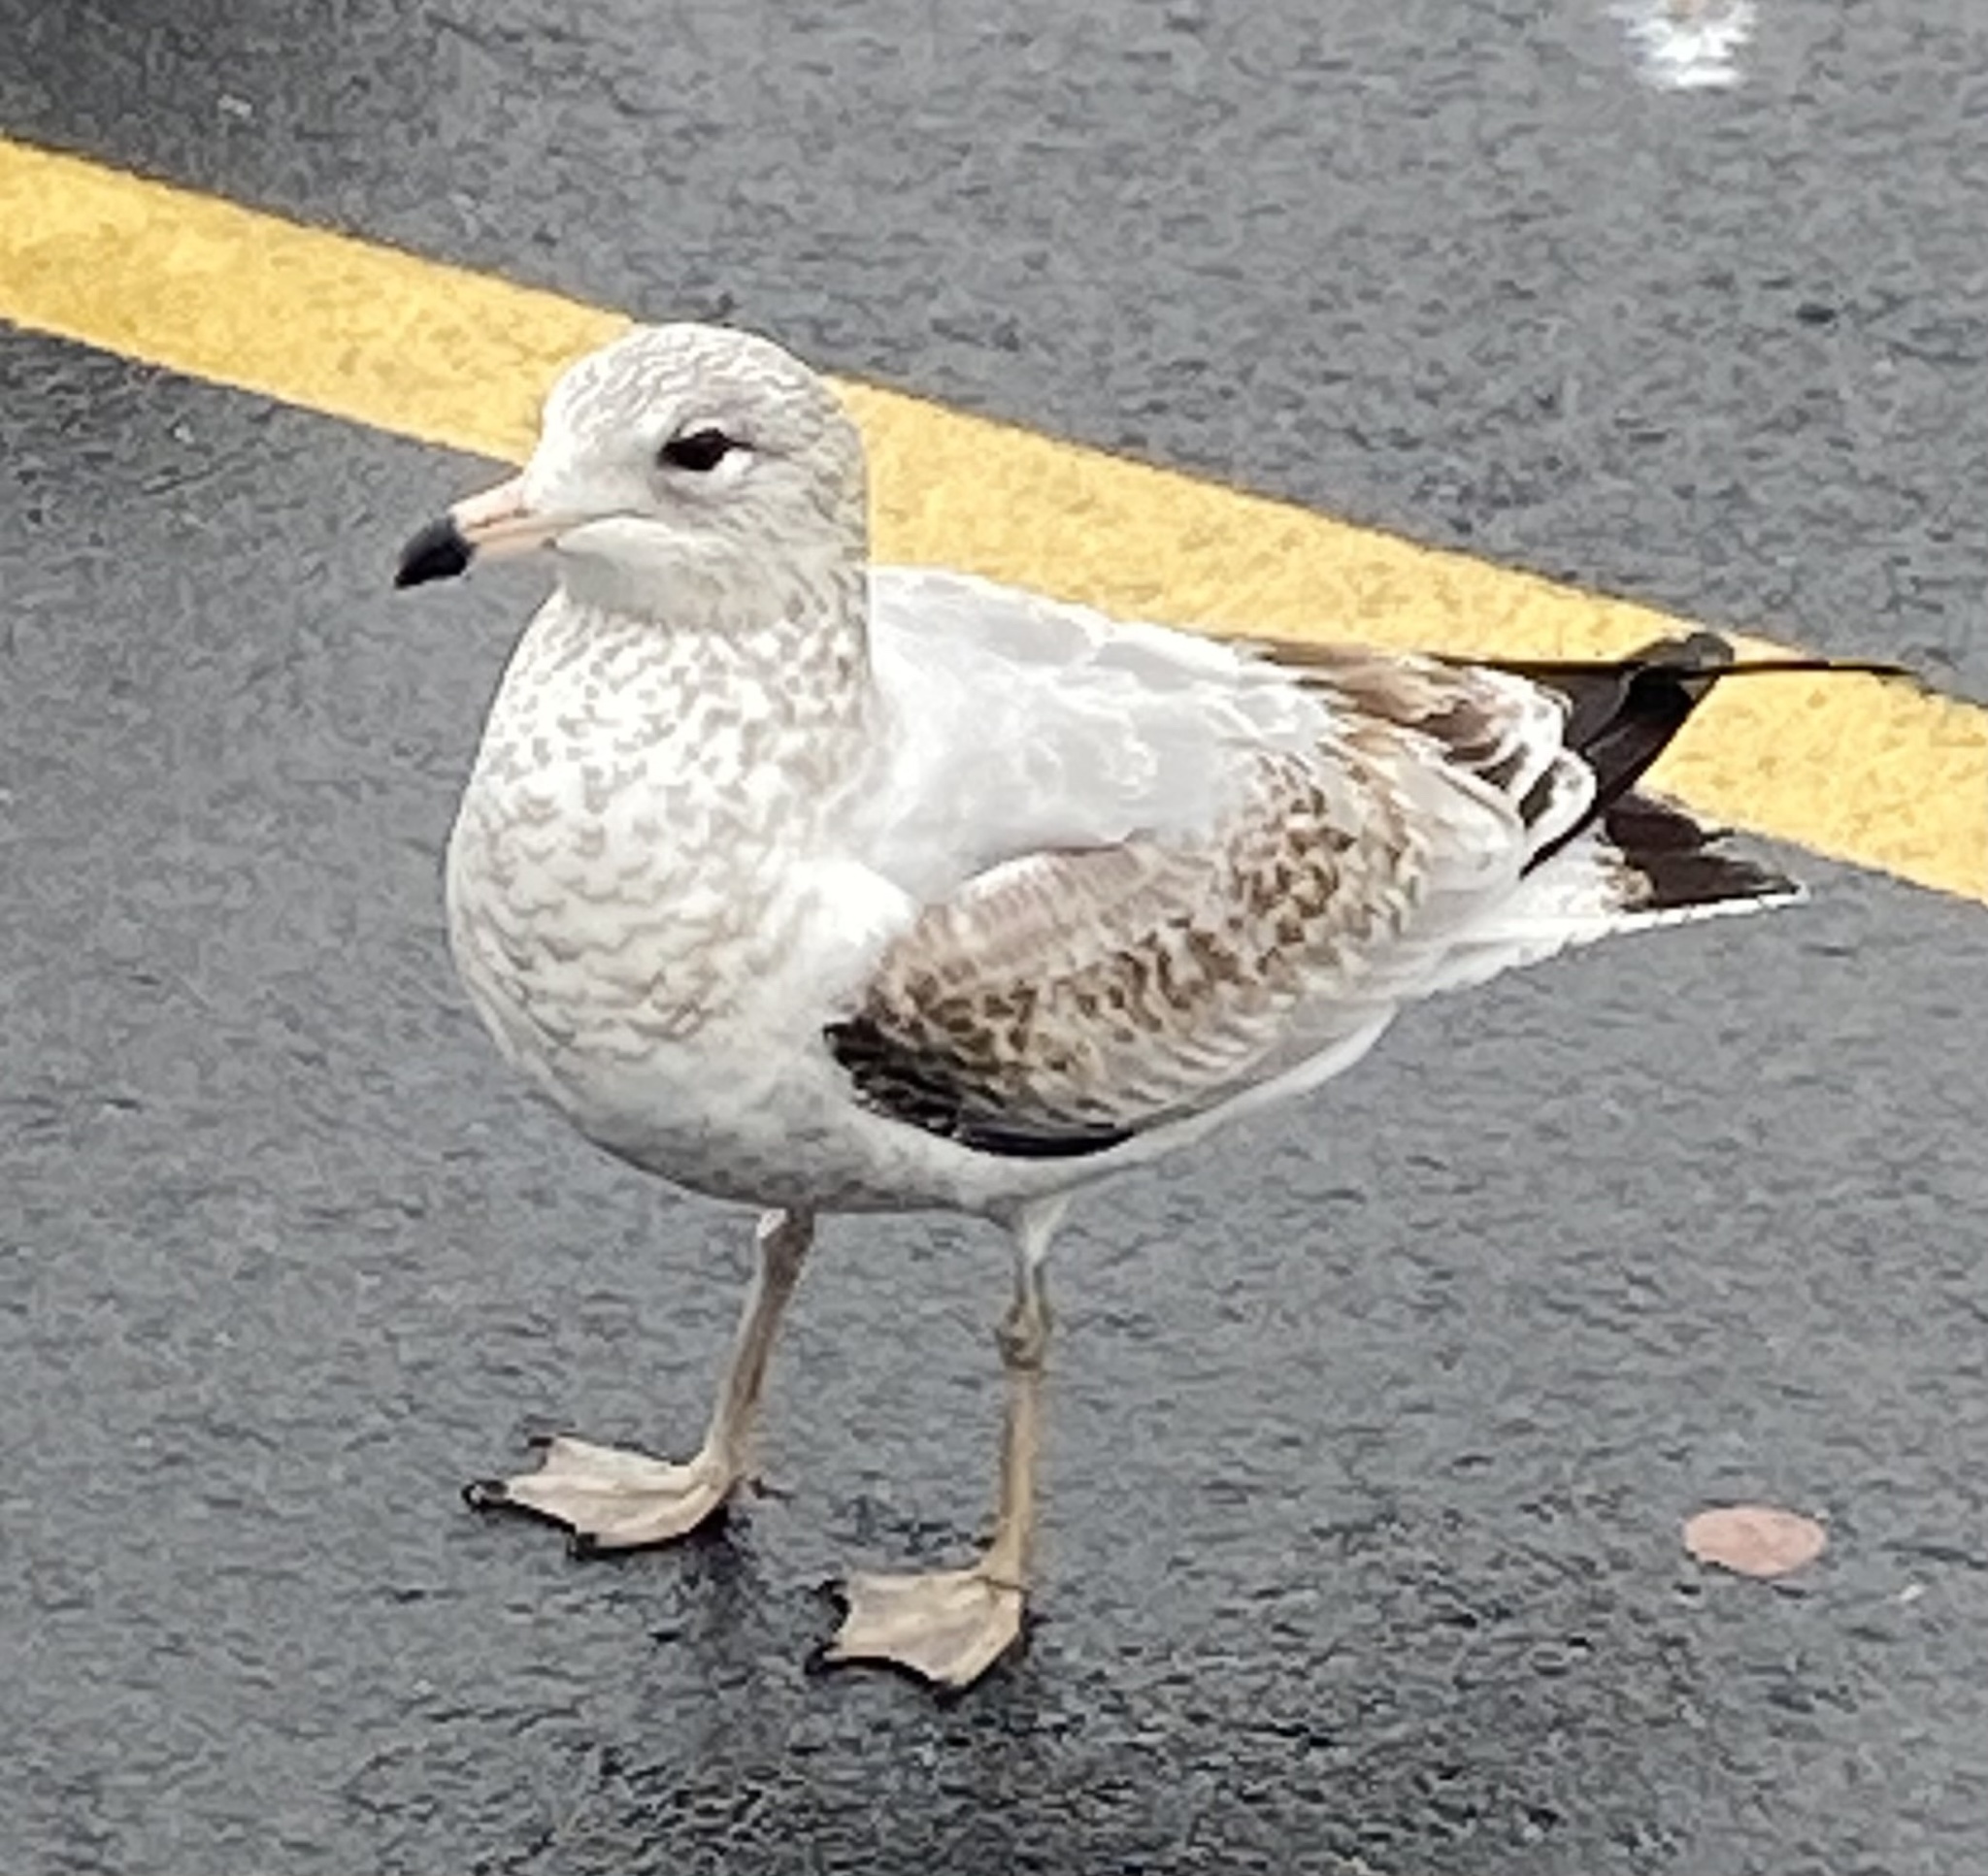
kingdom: Animalia
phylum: Chordata
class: Aves
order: Charadriiformes
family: Laridae
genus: Larus
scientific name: Larus delawarensis
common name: Ring-billed gull
